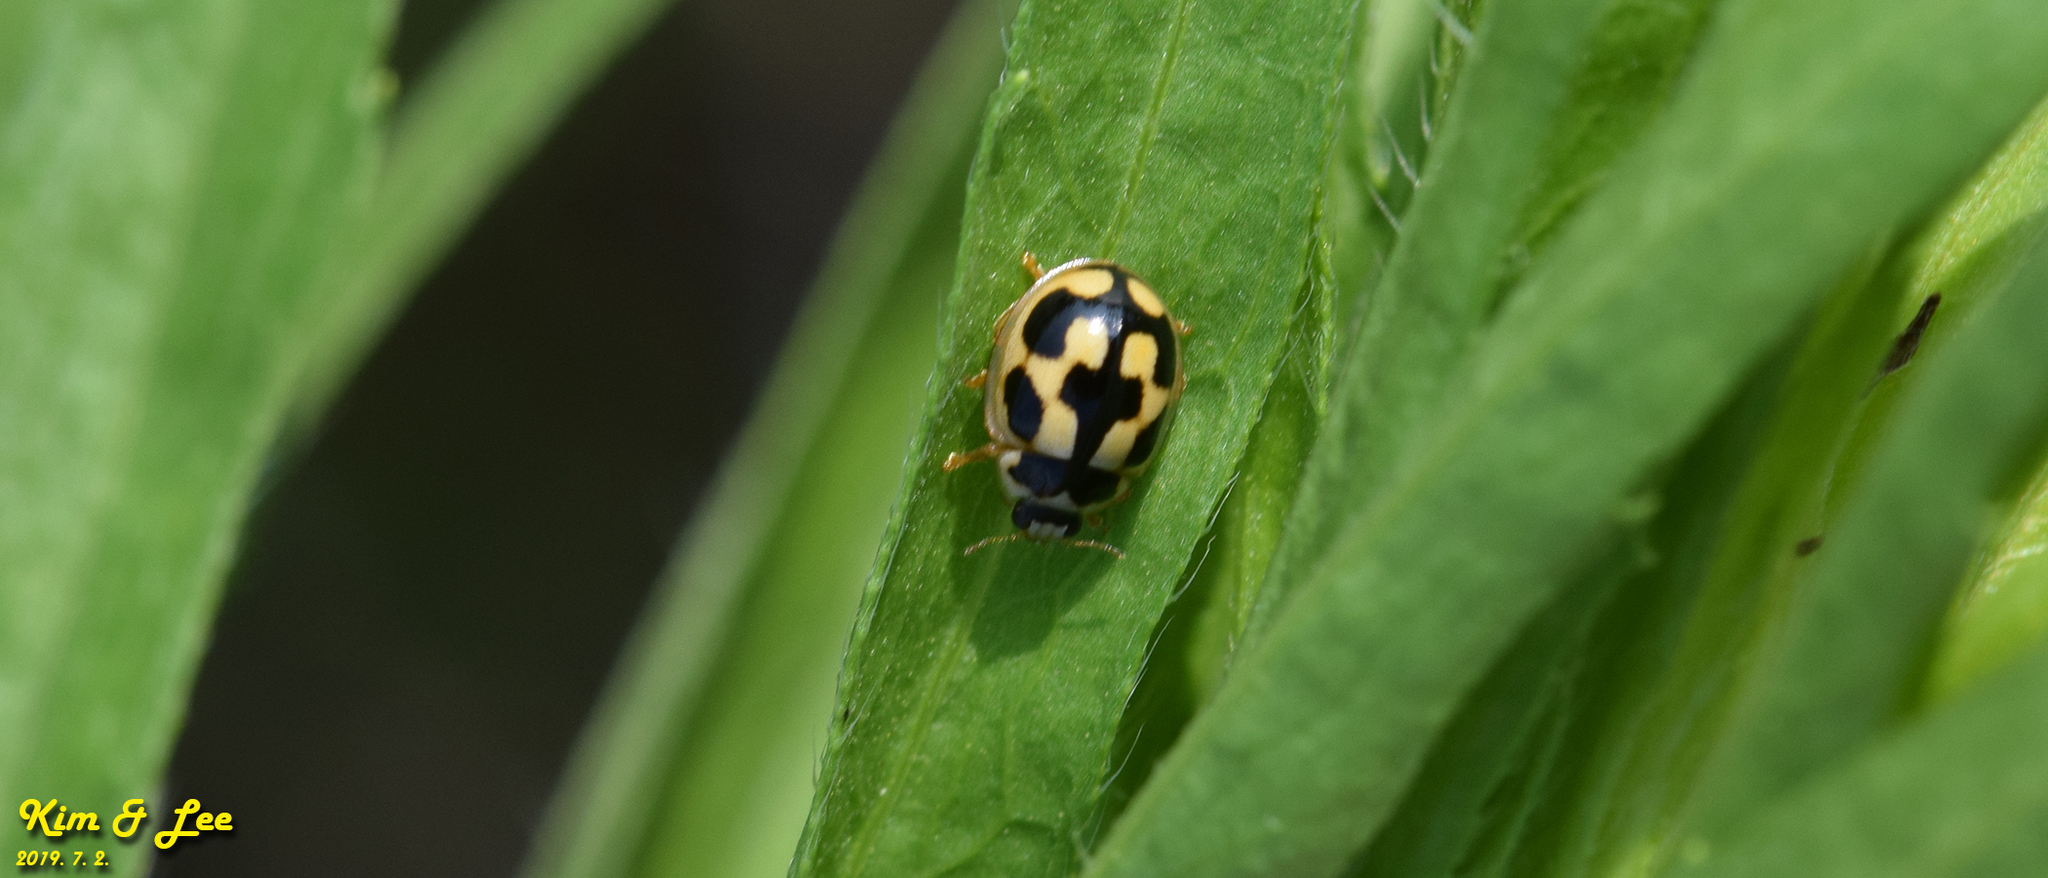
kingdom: Animalia
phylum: Arthropoda
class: Insecta
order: Coleoptera
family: Coccinellidae
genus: Propylea
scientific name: Propylea japonica
